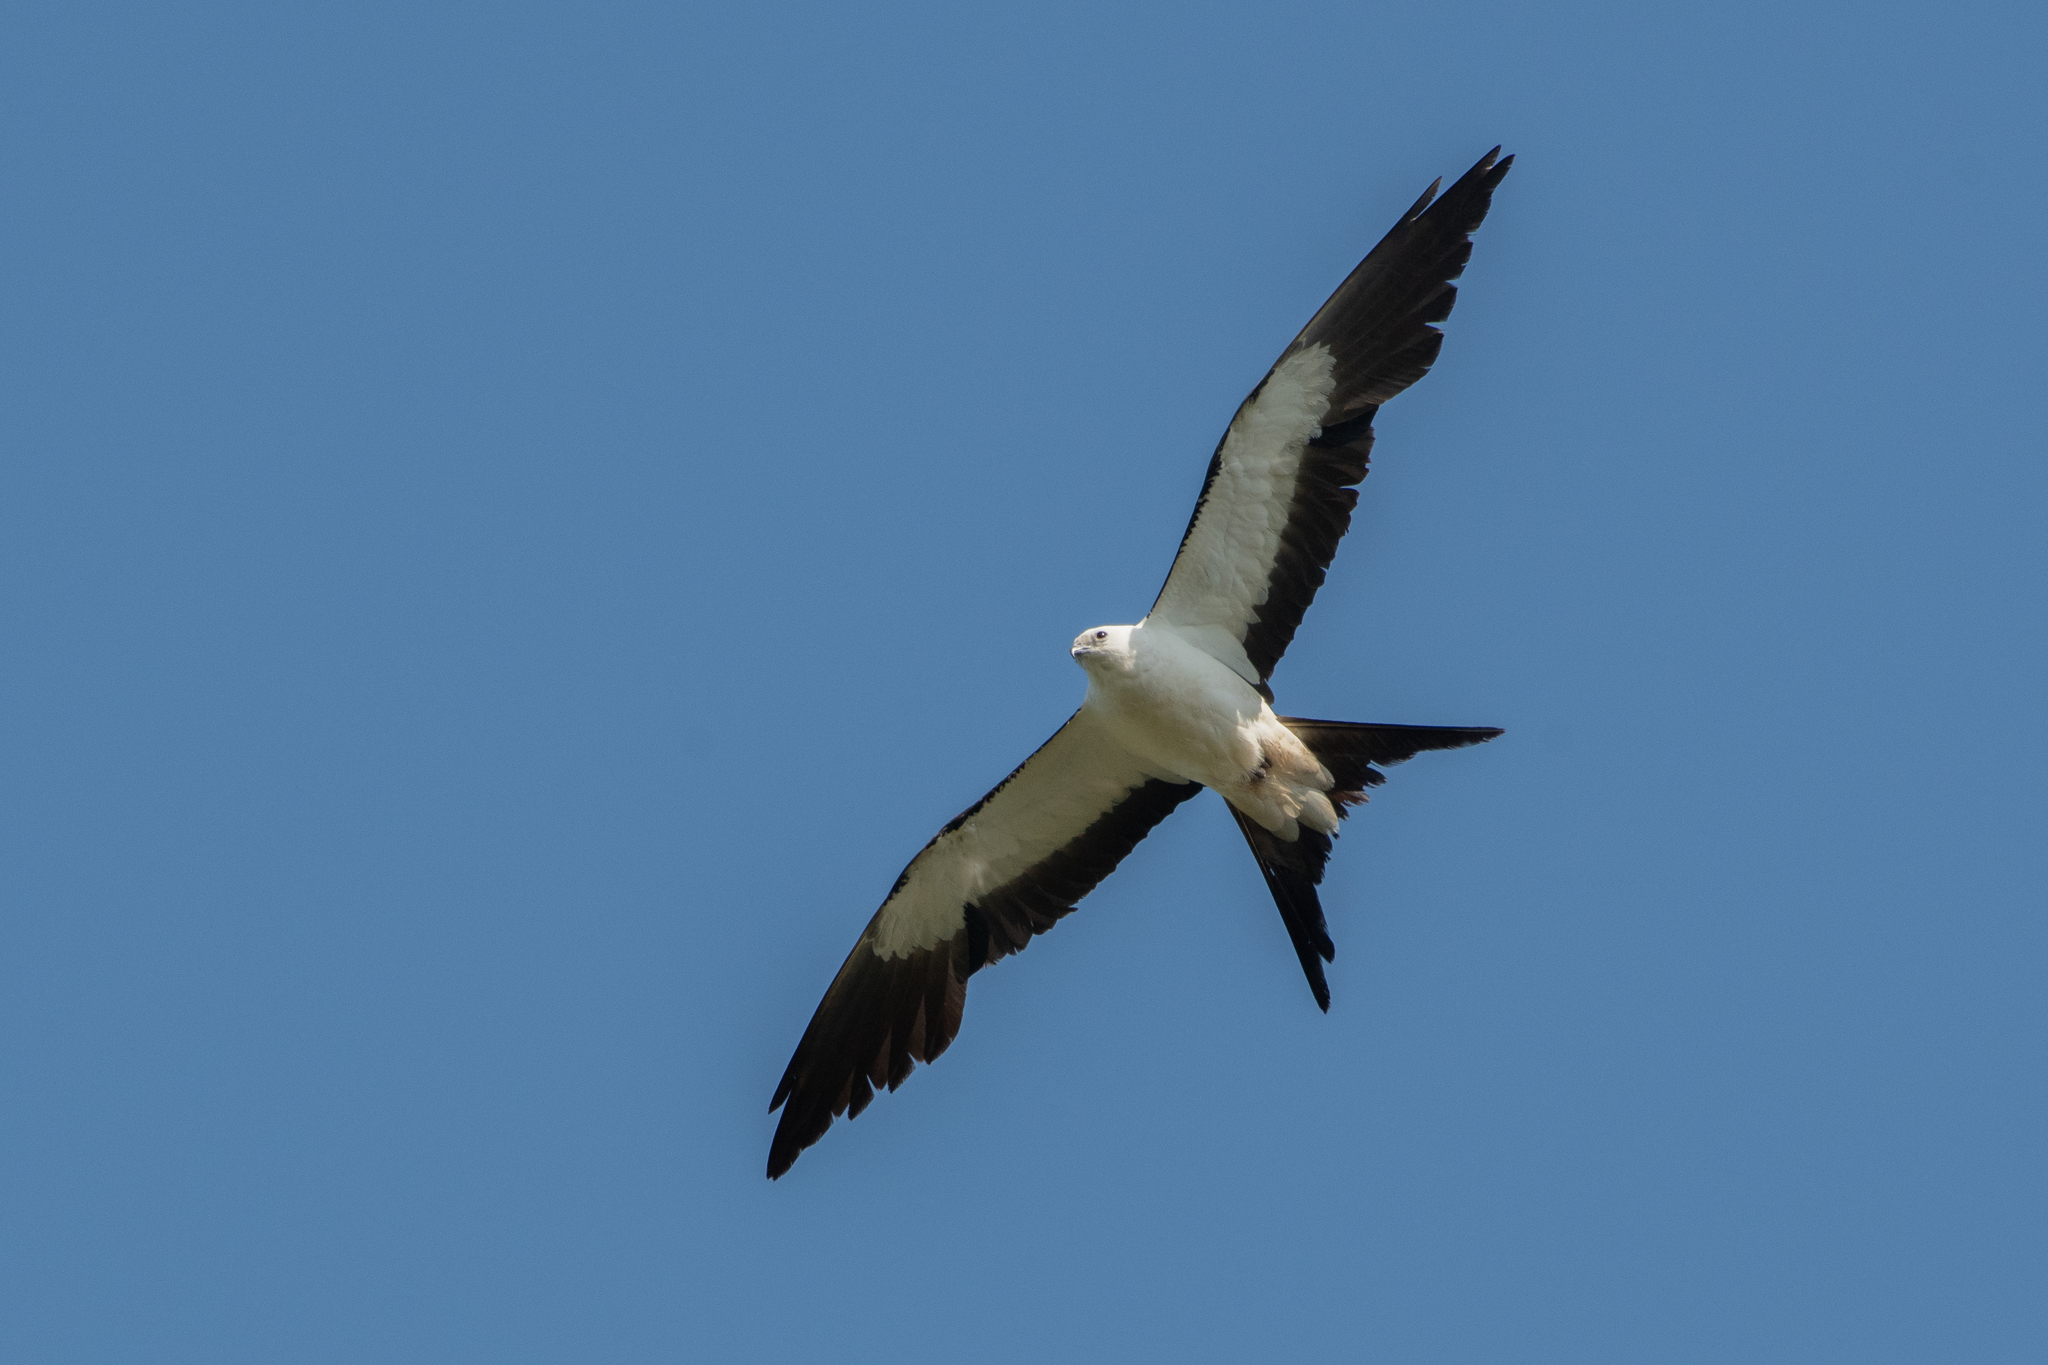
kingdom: Animalia
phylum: Chordata
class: Aves
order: Accipitriformes
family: Accipitridae
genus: Elanoides
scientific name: Elanoides forficatus
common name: Swallow-tailed kite
